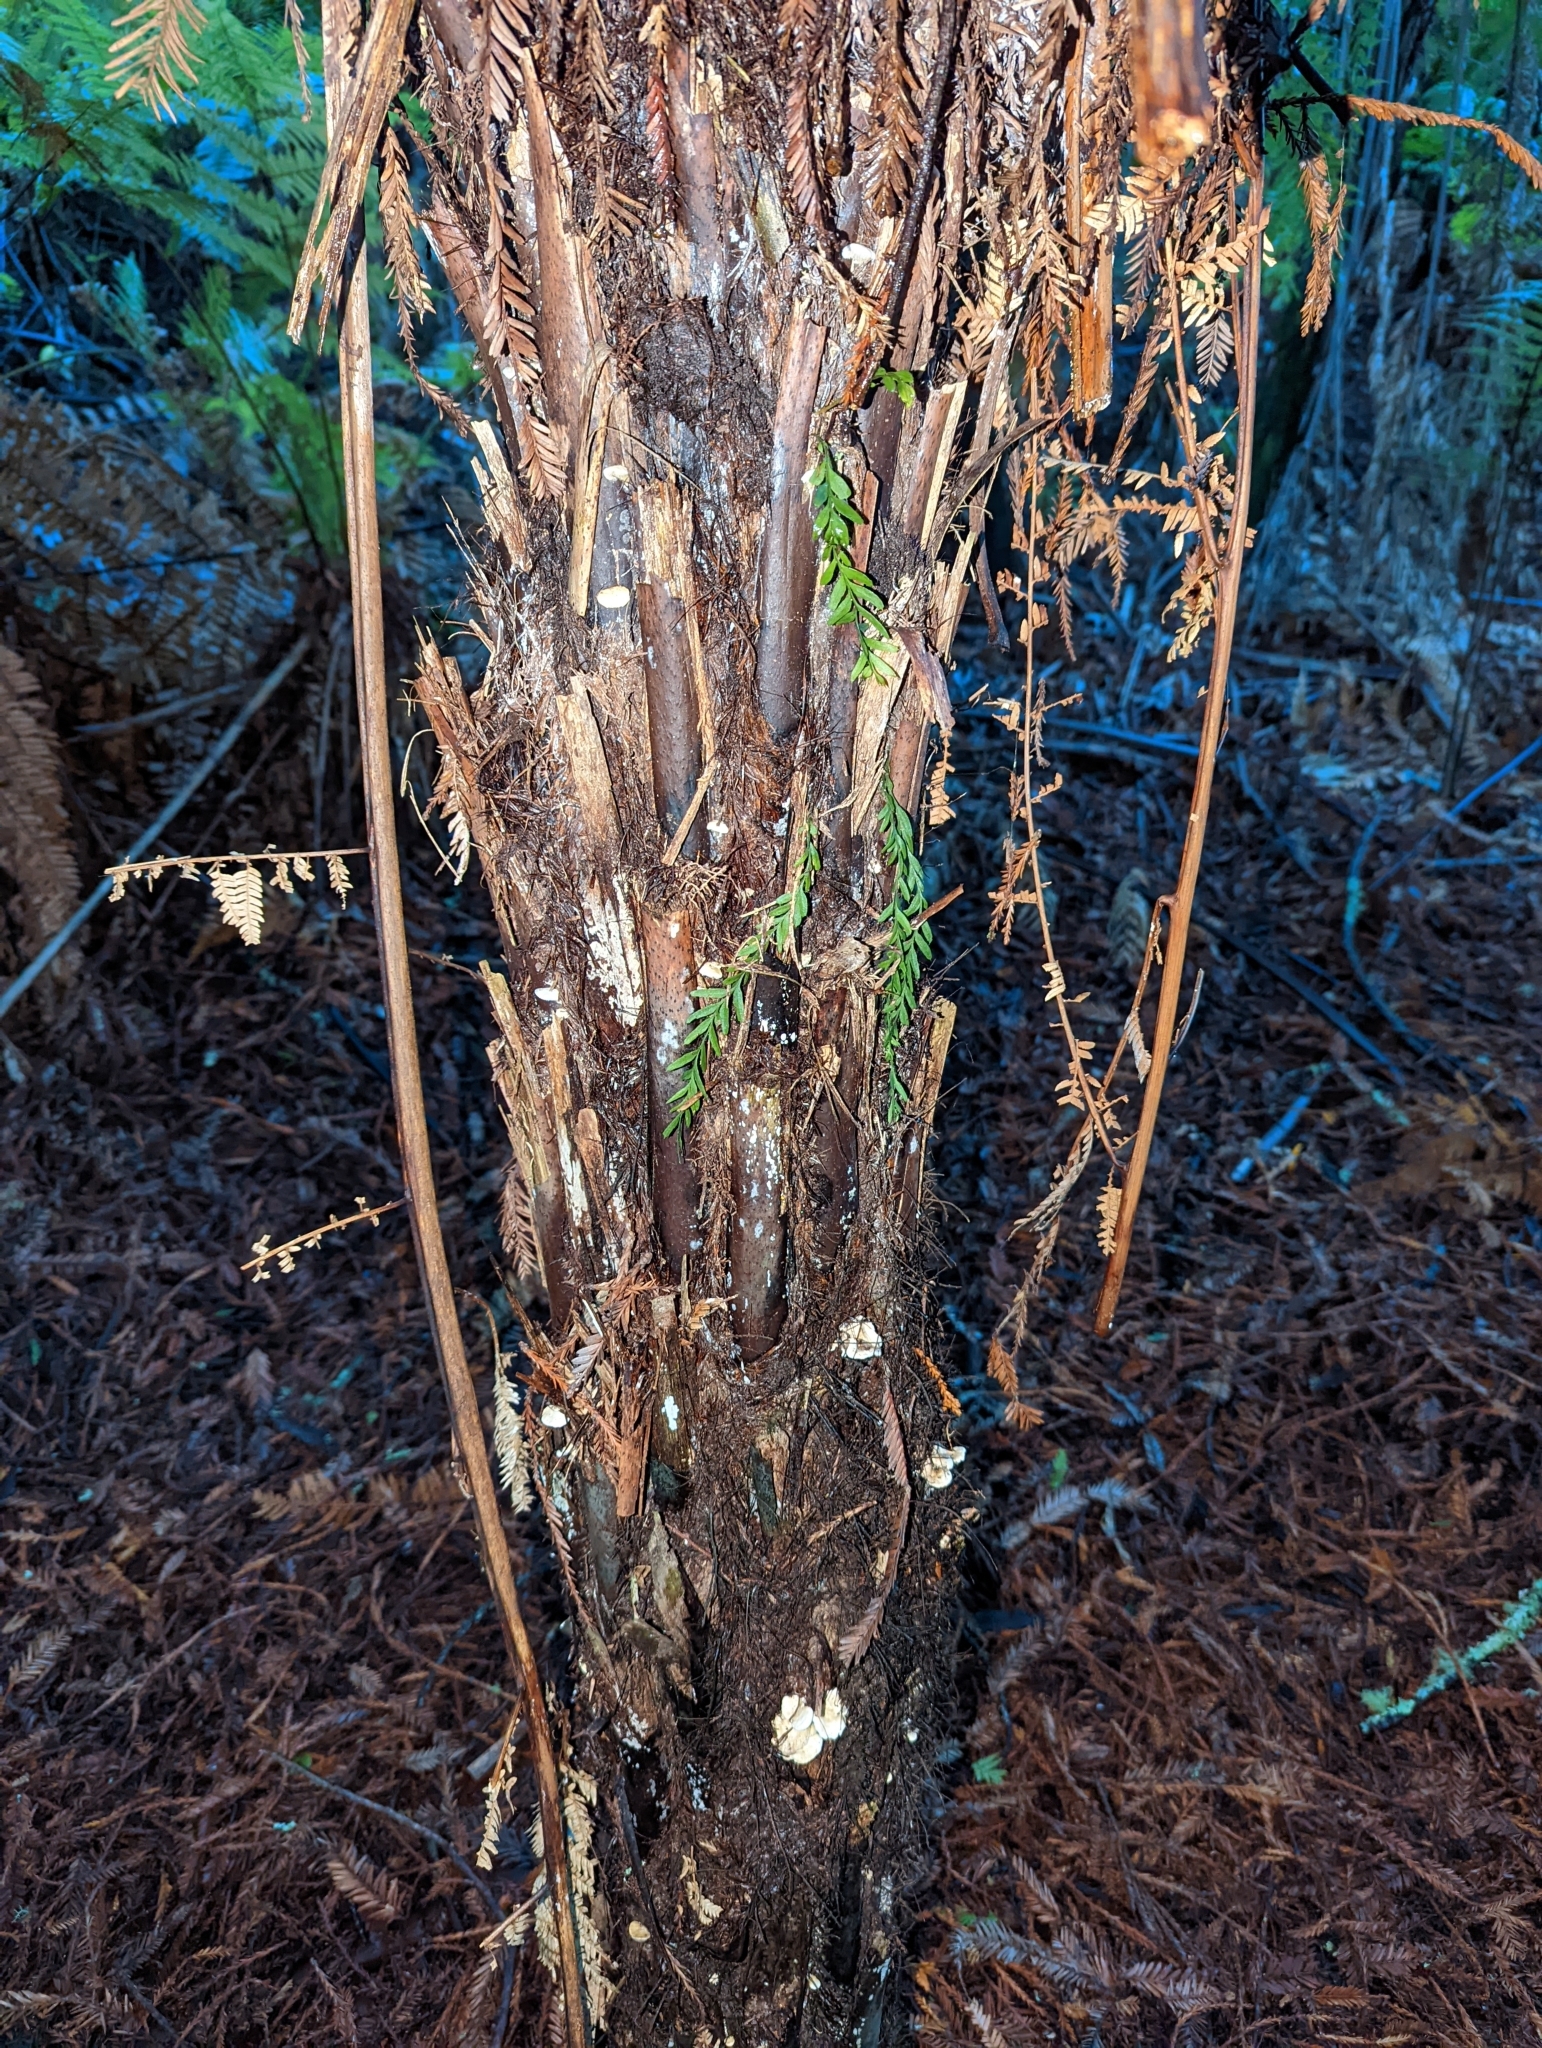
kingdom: Fungi
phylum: Basidiomycota
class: Agaricomycetes
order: Gomphales
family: Clavariadelphaceae
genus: Beenakia
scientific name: Beenakia dacostae
